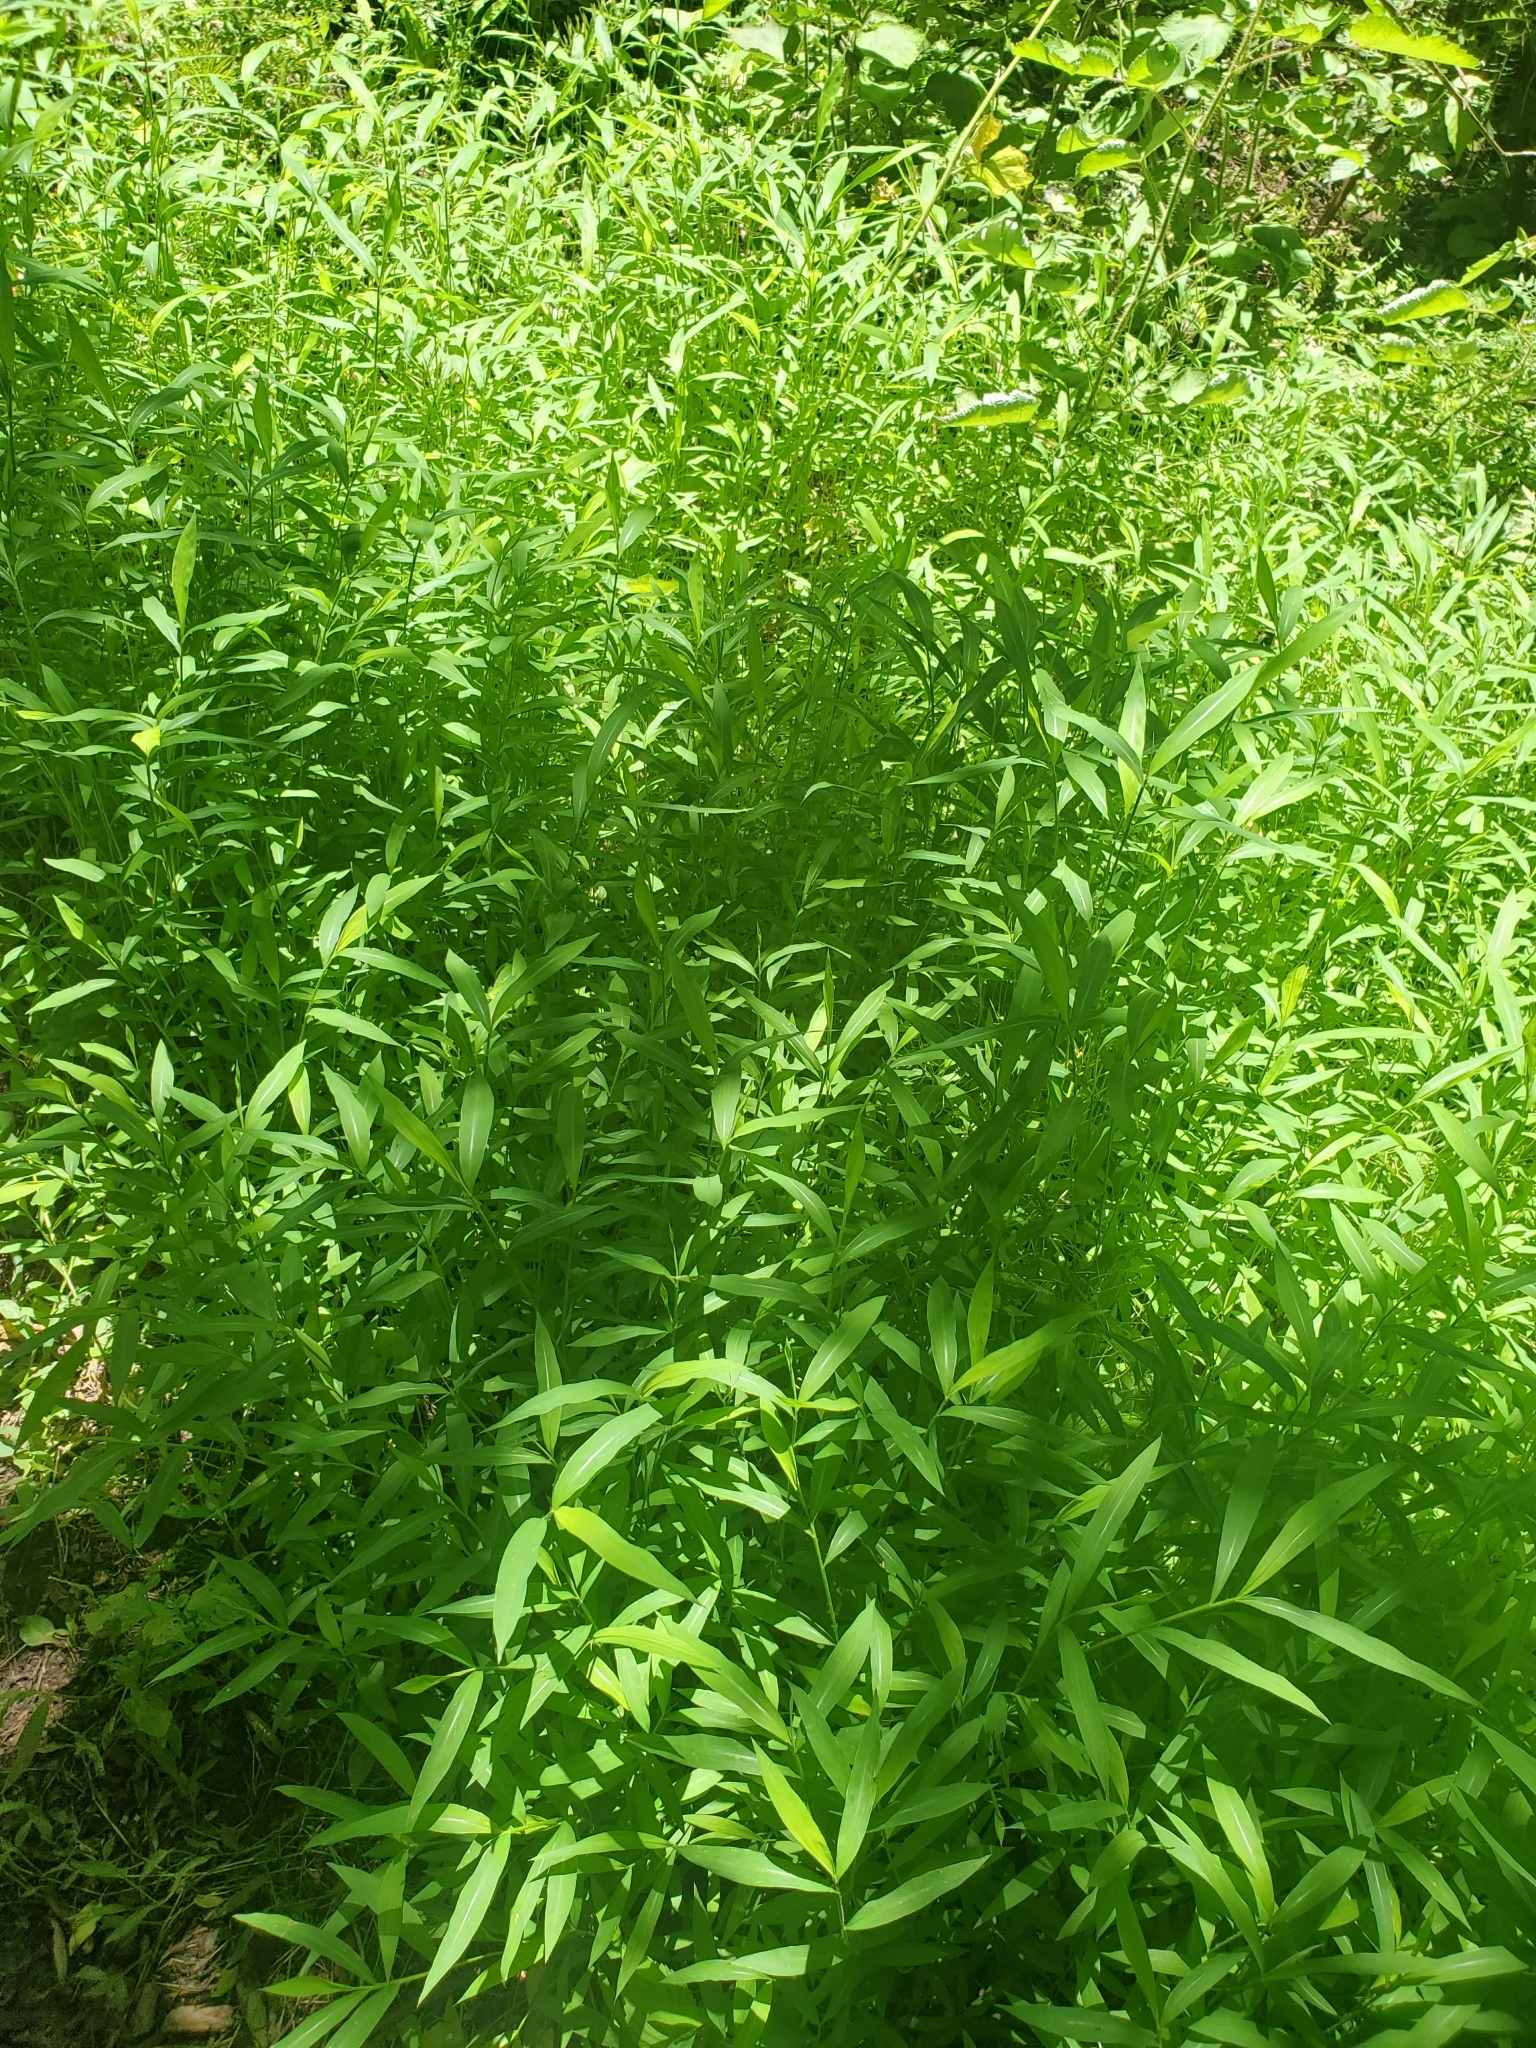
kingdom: Plantae
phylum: Tracheophyta
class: Liliopsida
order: Poales
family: Poaceae
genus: Microstegium
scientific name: Microstegium vimineum
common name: Japanese stiltgrass
